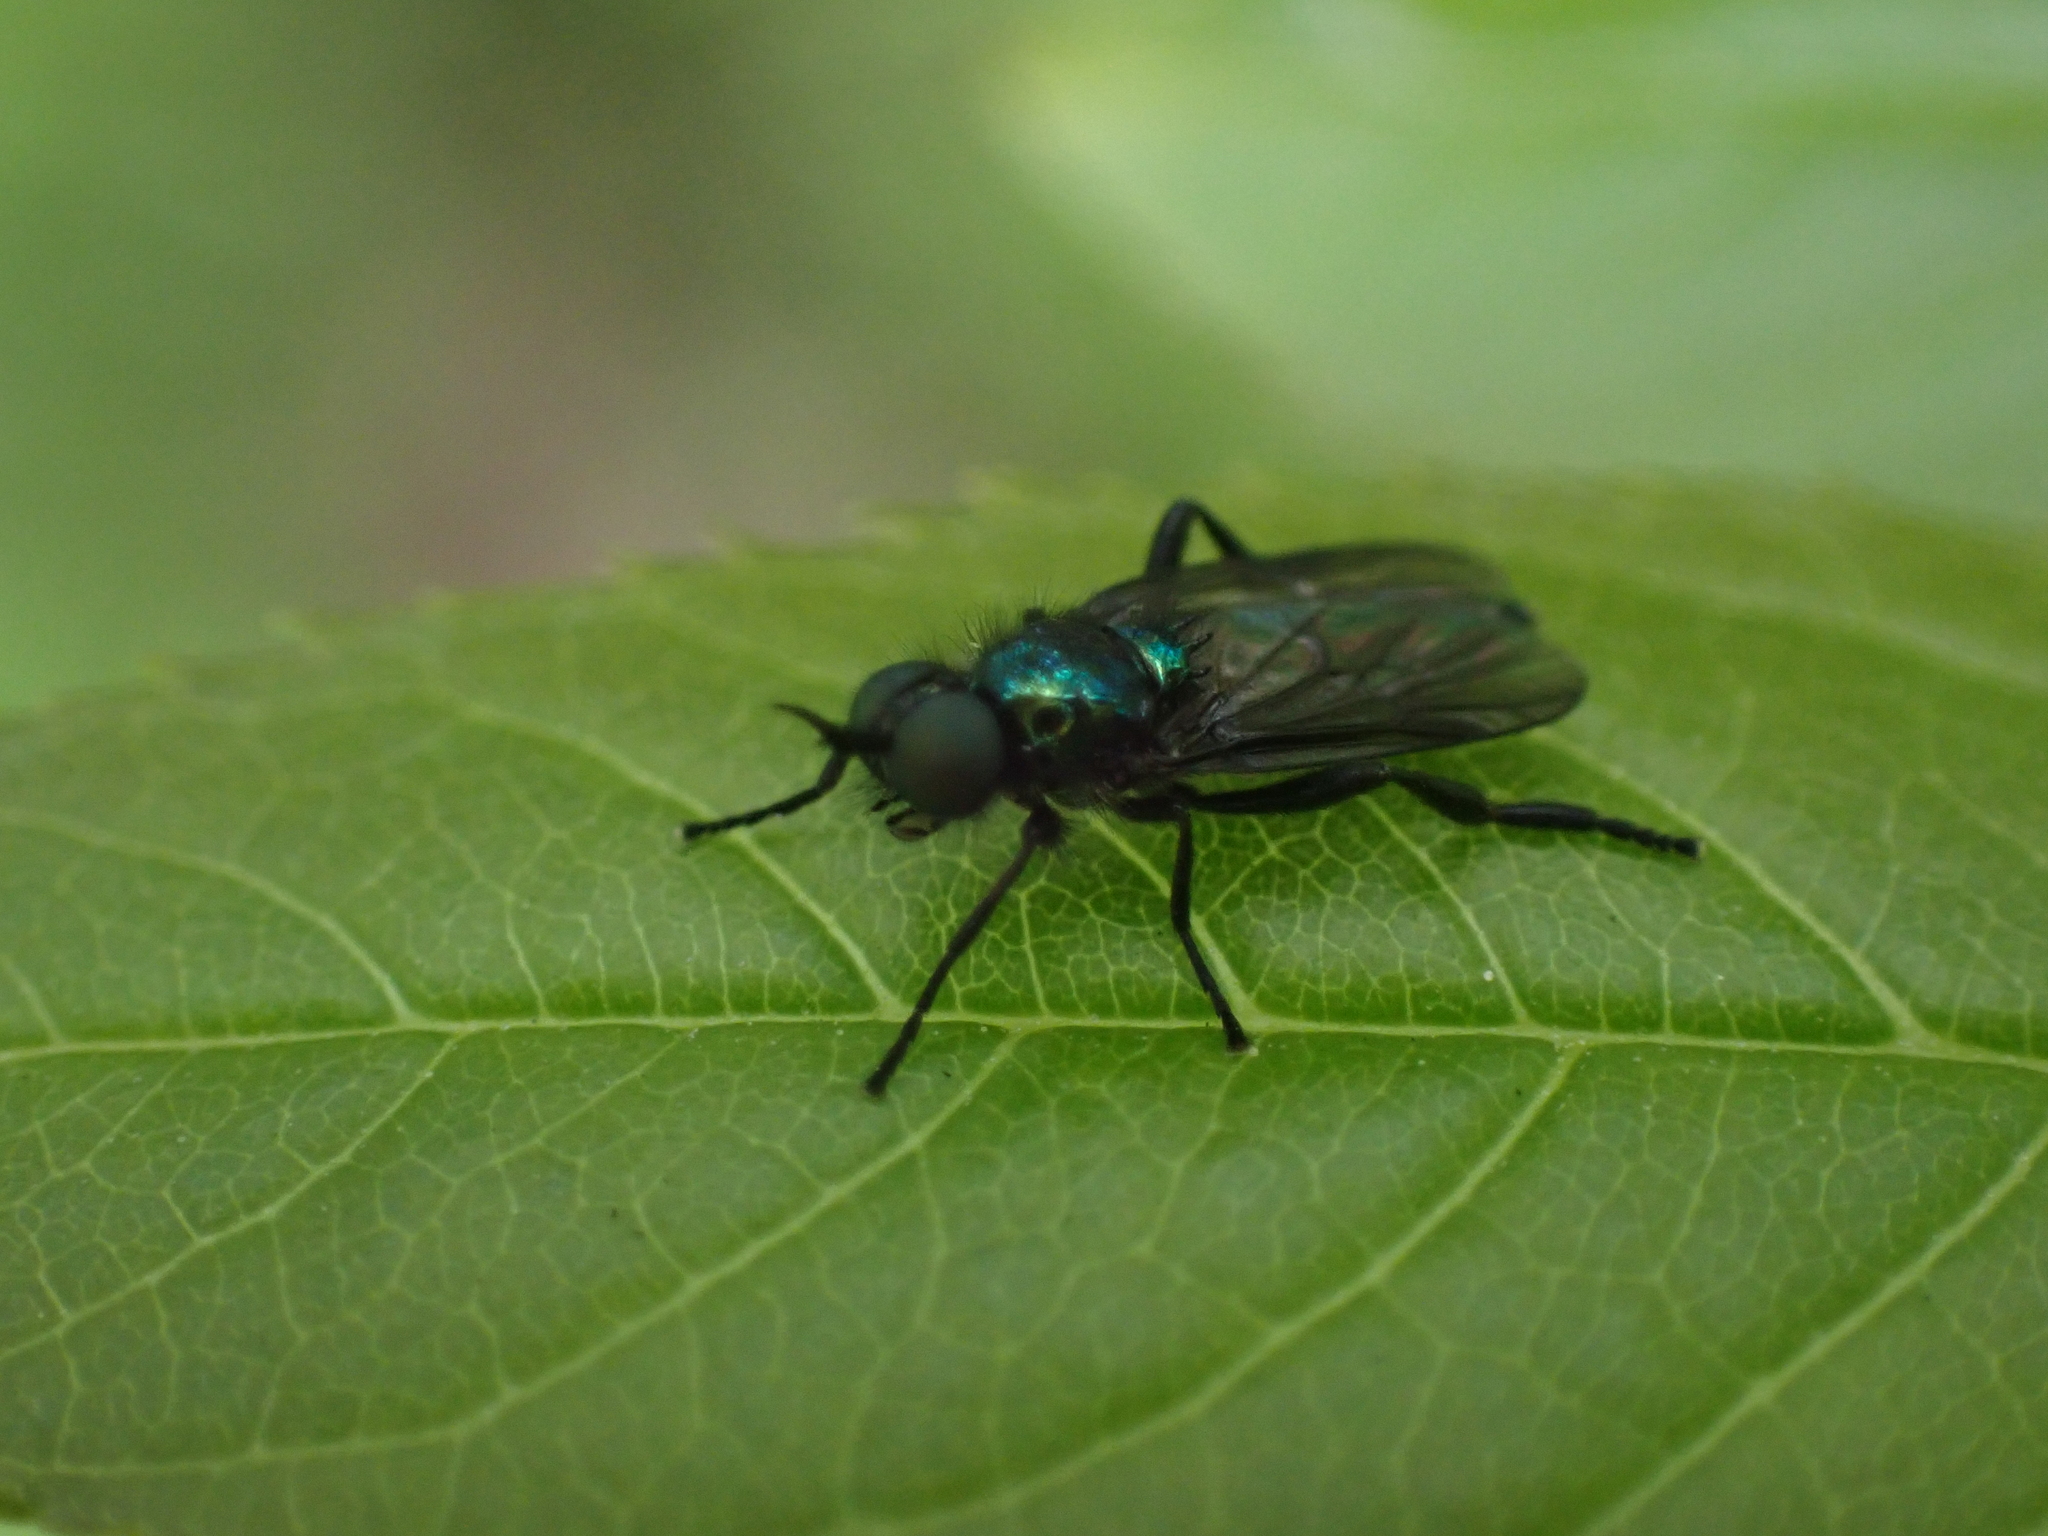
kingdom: Animalia
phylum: Arthropoda
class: Insecta
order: Diptera
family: Stratiomyidae
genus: Actina
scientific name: Actina chalybea
